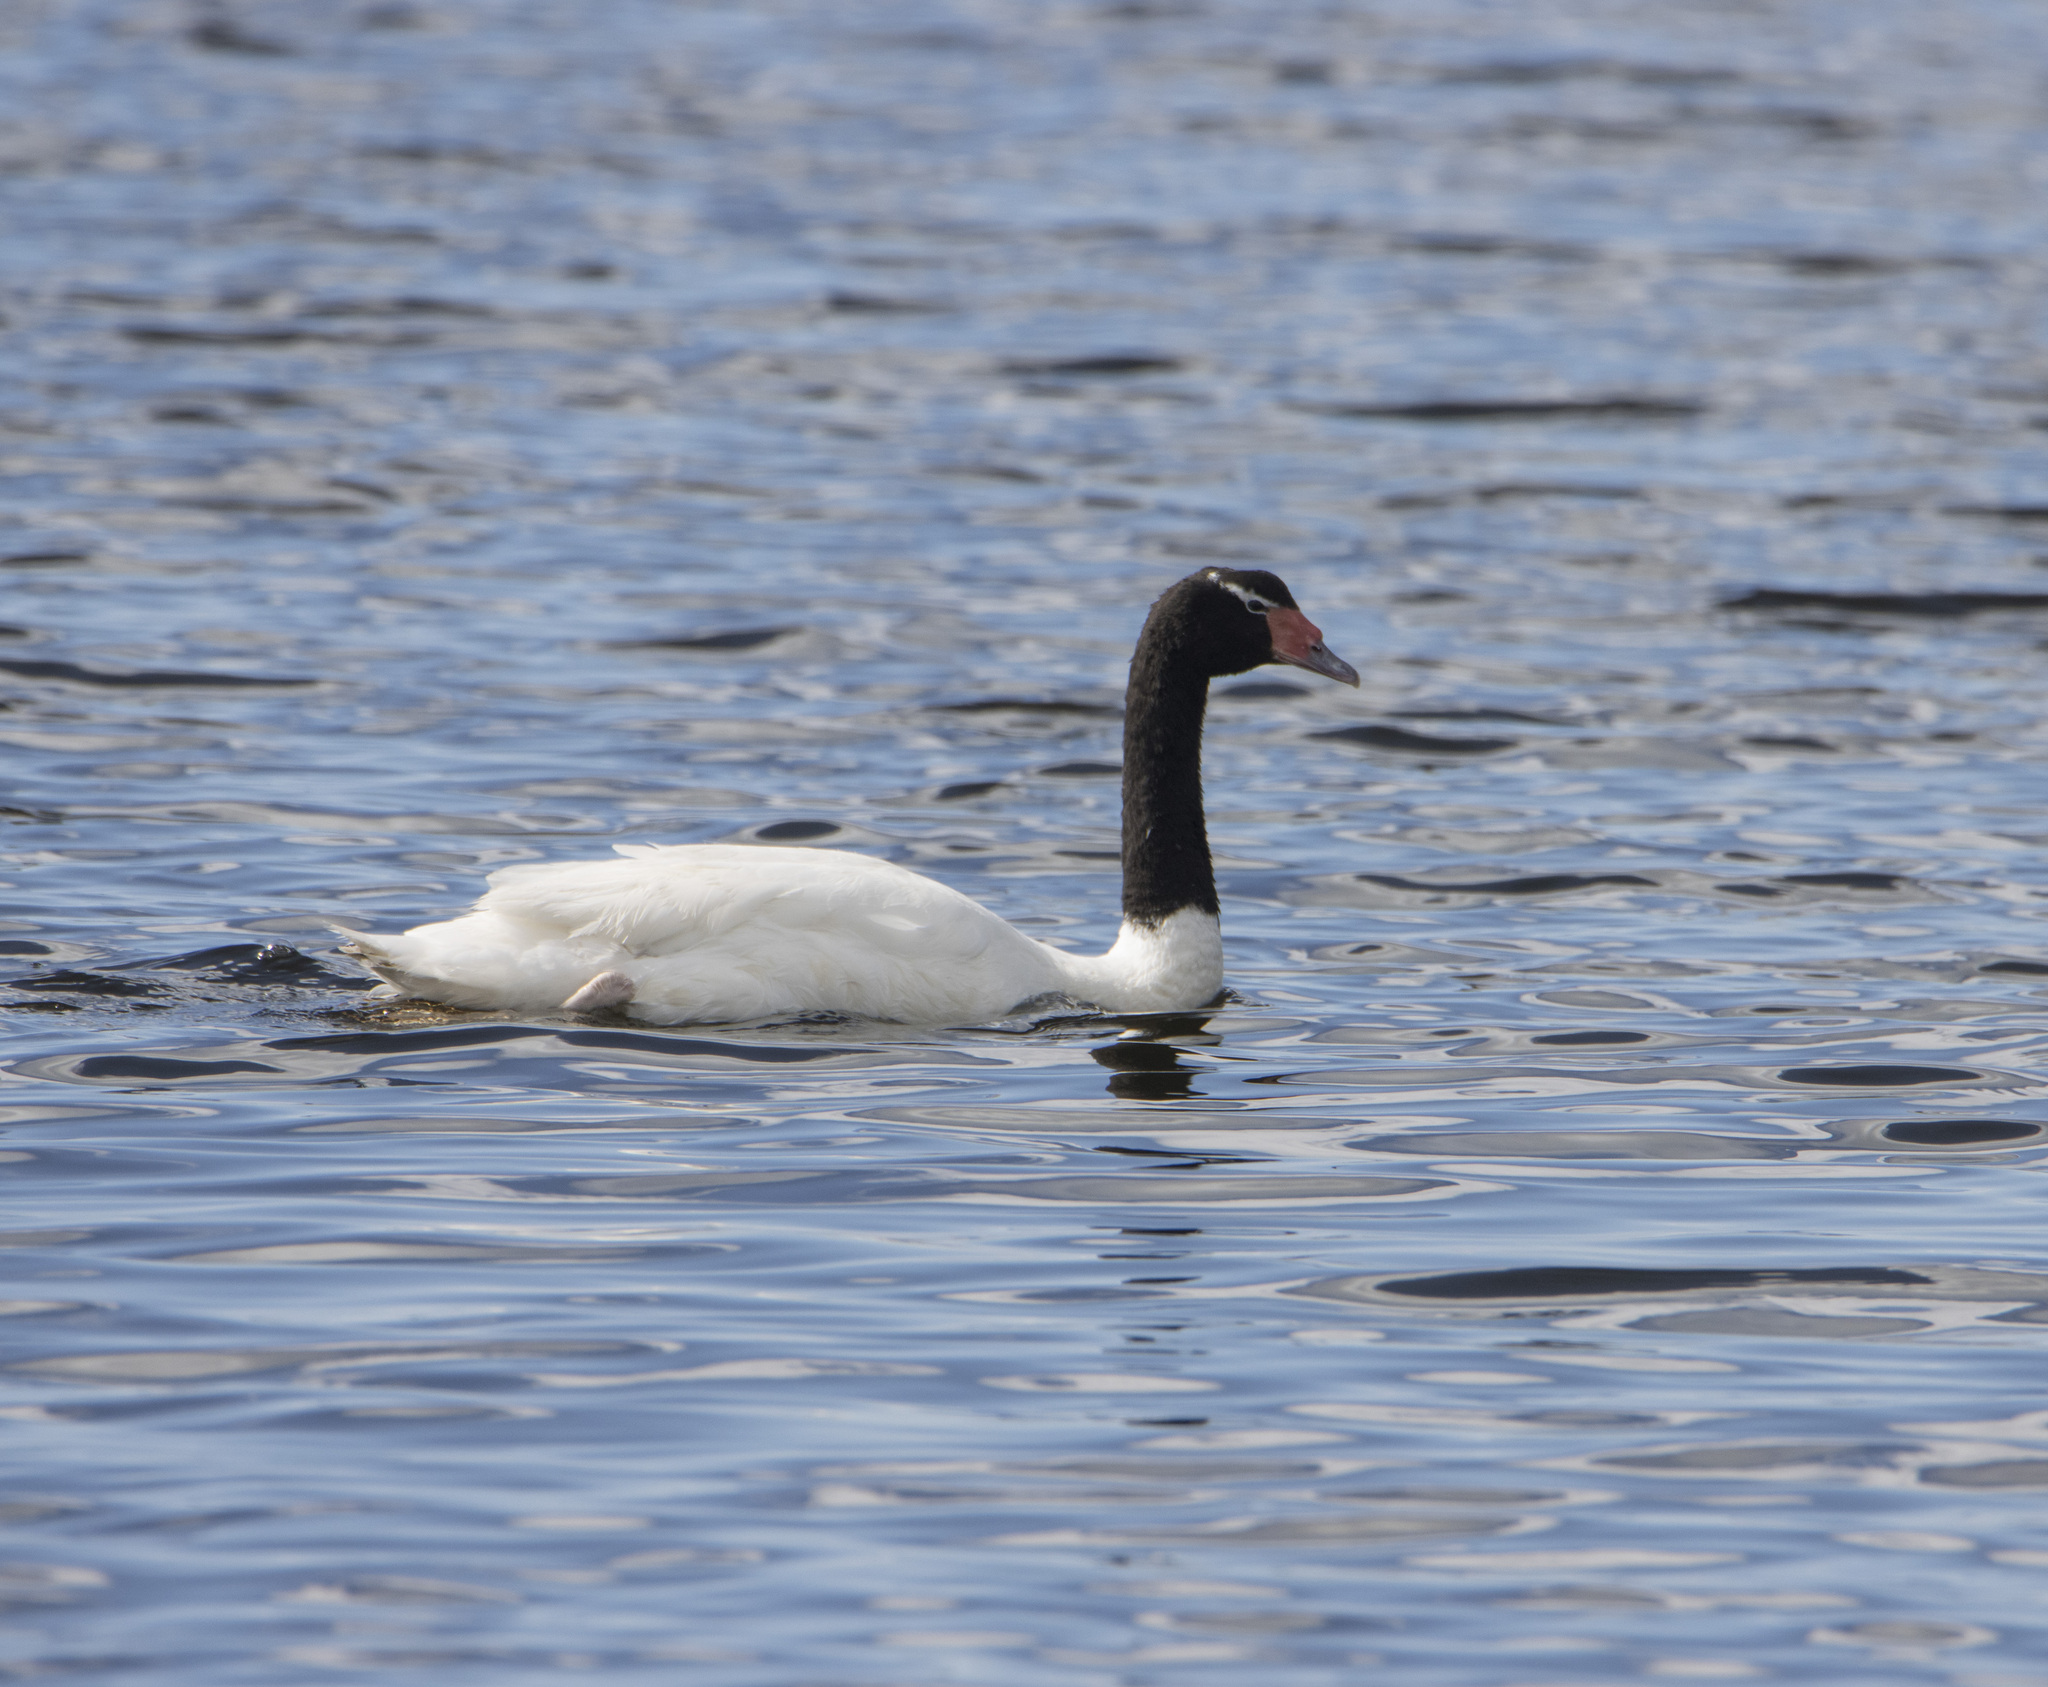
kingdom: Animalia
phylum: Chordata
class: Aves
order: Anseriformes
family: Anatidae
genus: Cygnus
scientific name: Cygnus melancoryphus
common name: Black-necked swan
